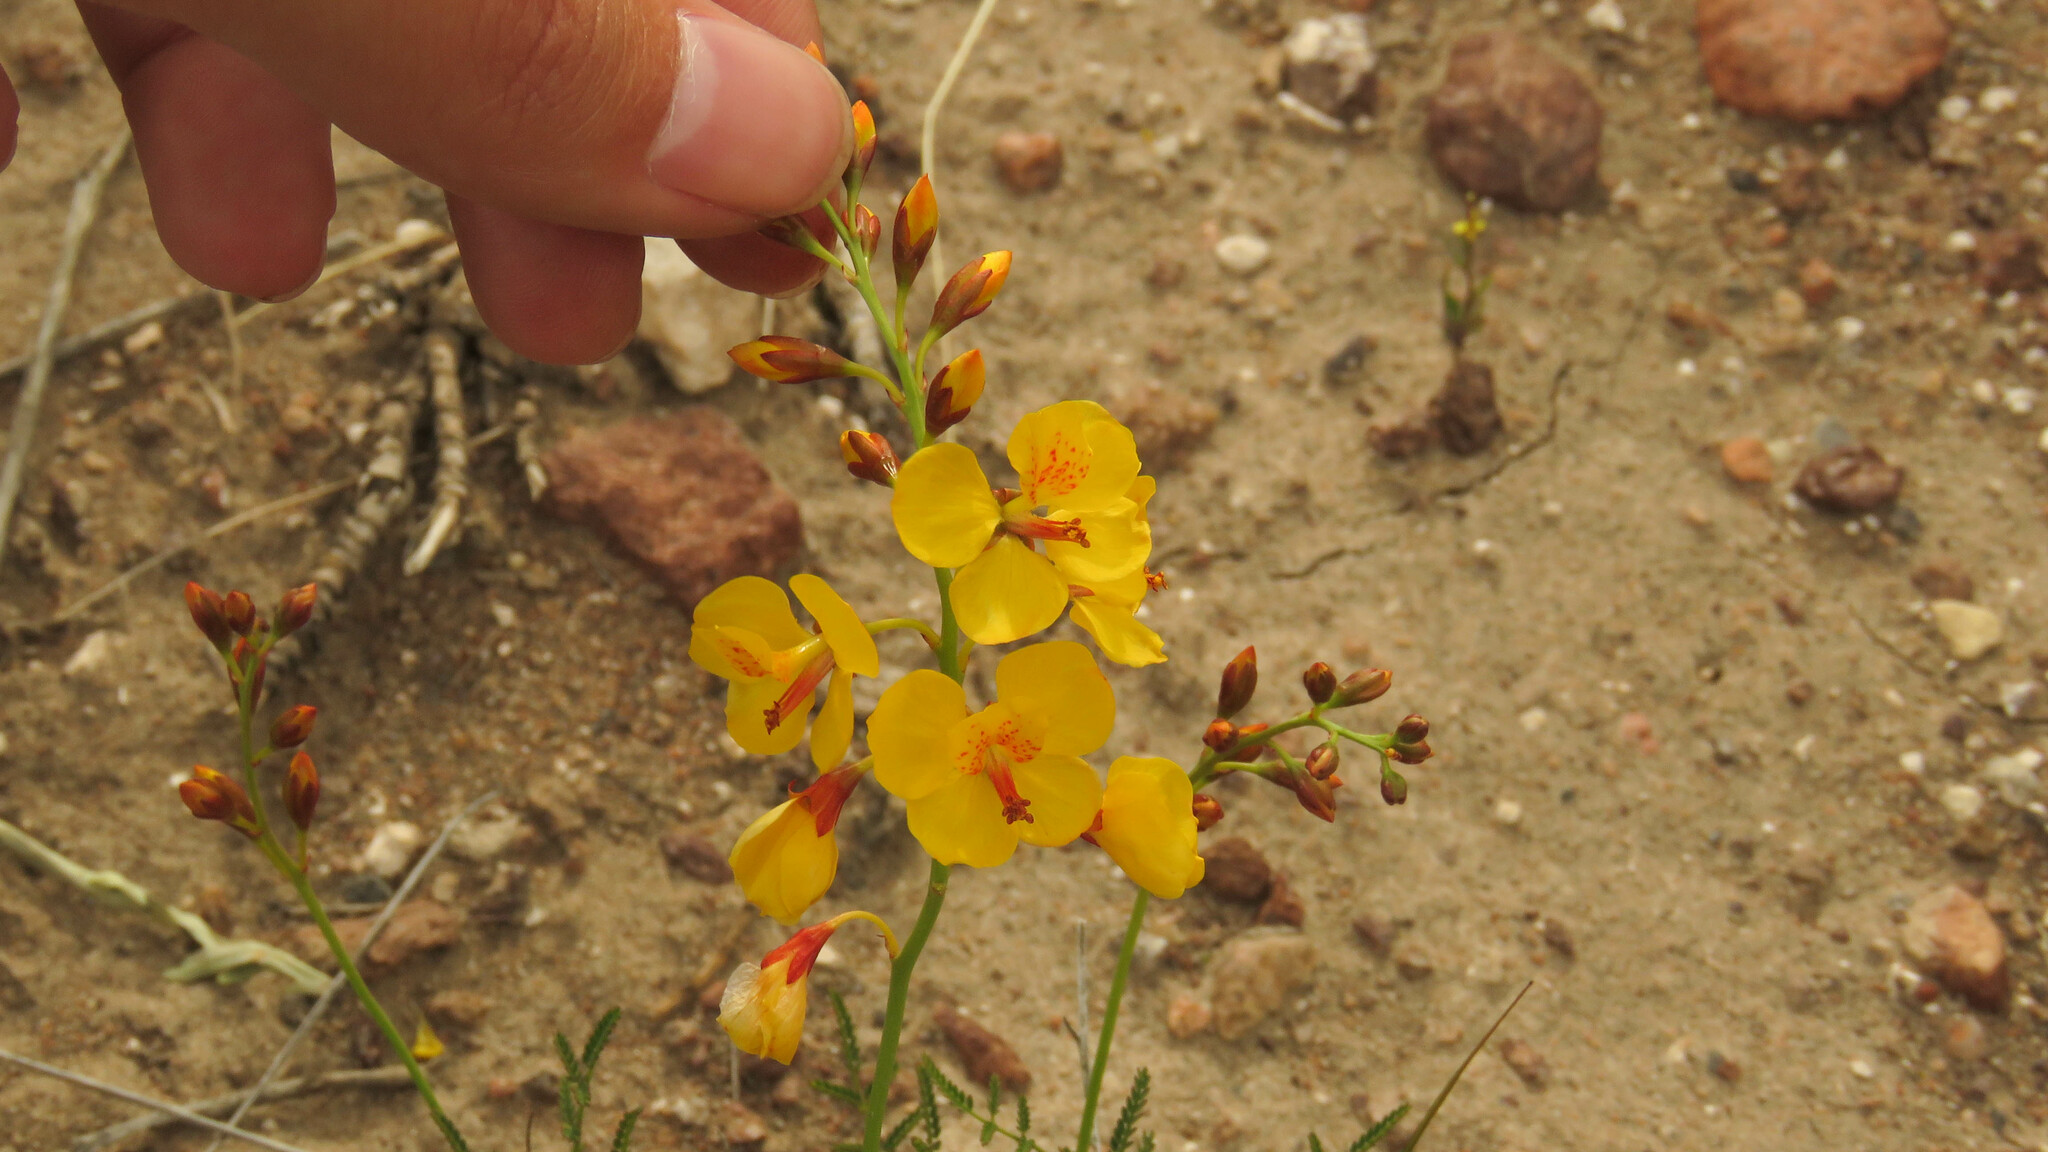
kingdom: Plantae
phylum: Tracheophyta
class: Magnoliopsida
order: Fabales
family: Fabaceae
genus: Hoffmannseggia
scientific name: Hoffmannseggia erecta
